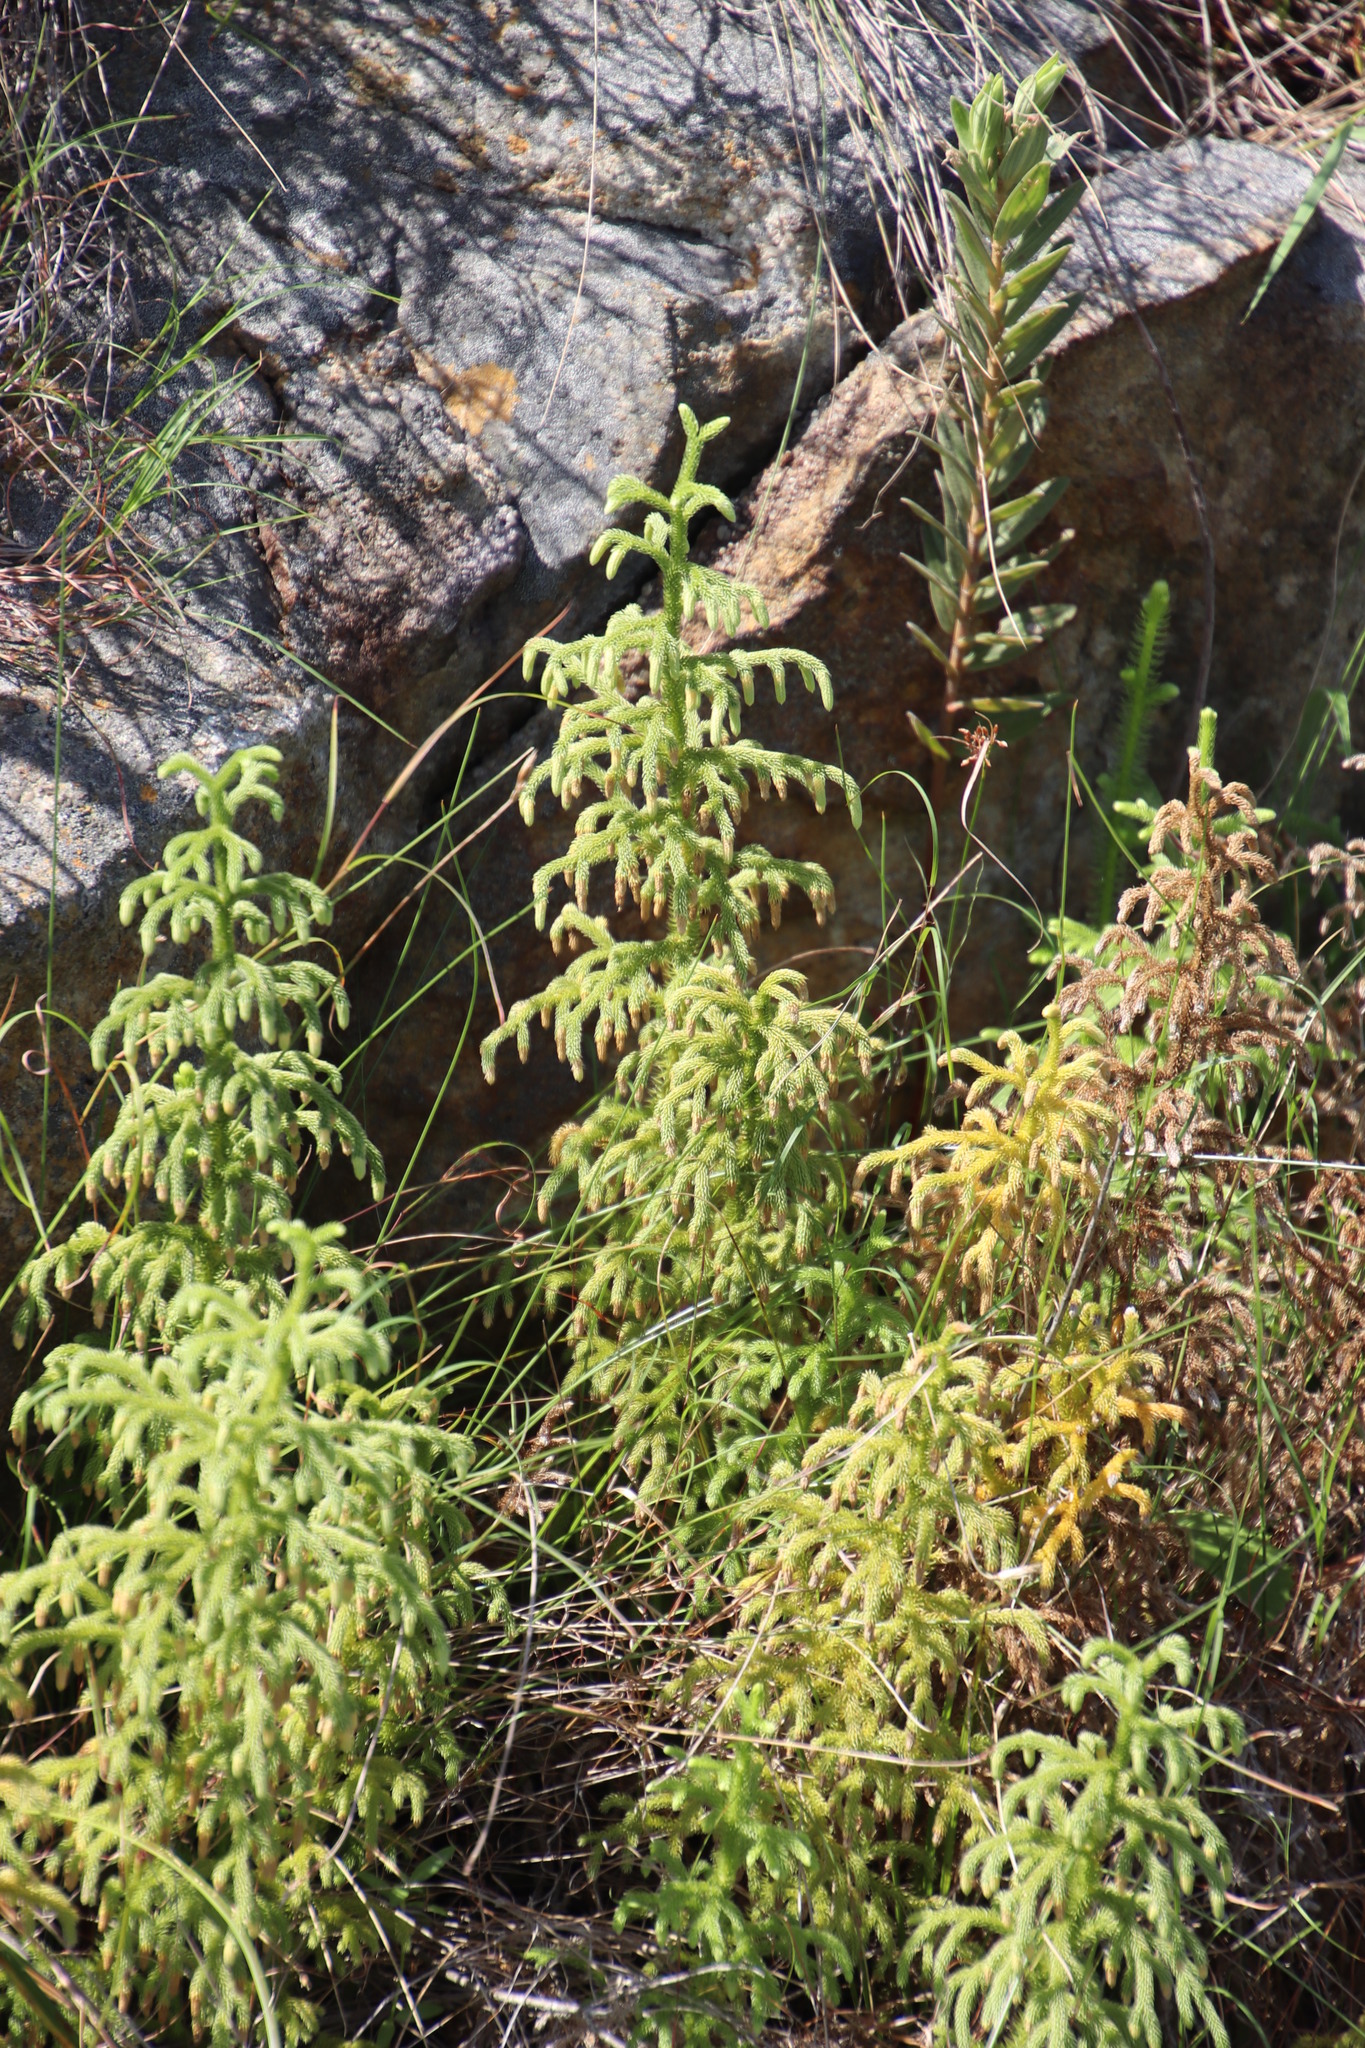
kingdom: Plantae
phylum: Tracheophyta
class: Lycopodiopsida
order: Lycopodiales
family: Lycopodiaceae
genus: Palhinhaea
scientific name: Palhinhaea cernua
